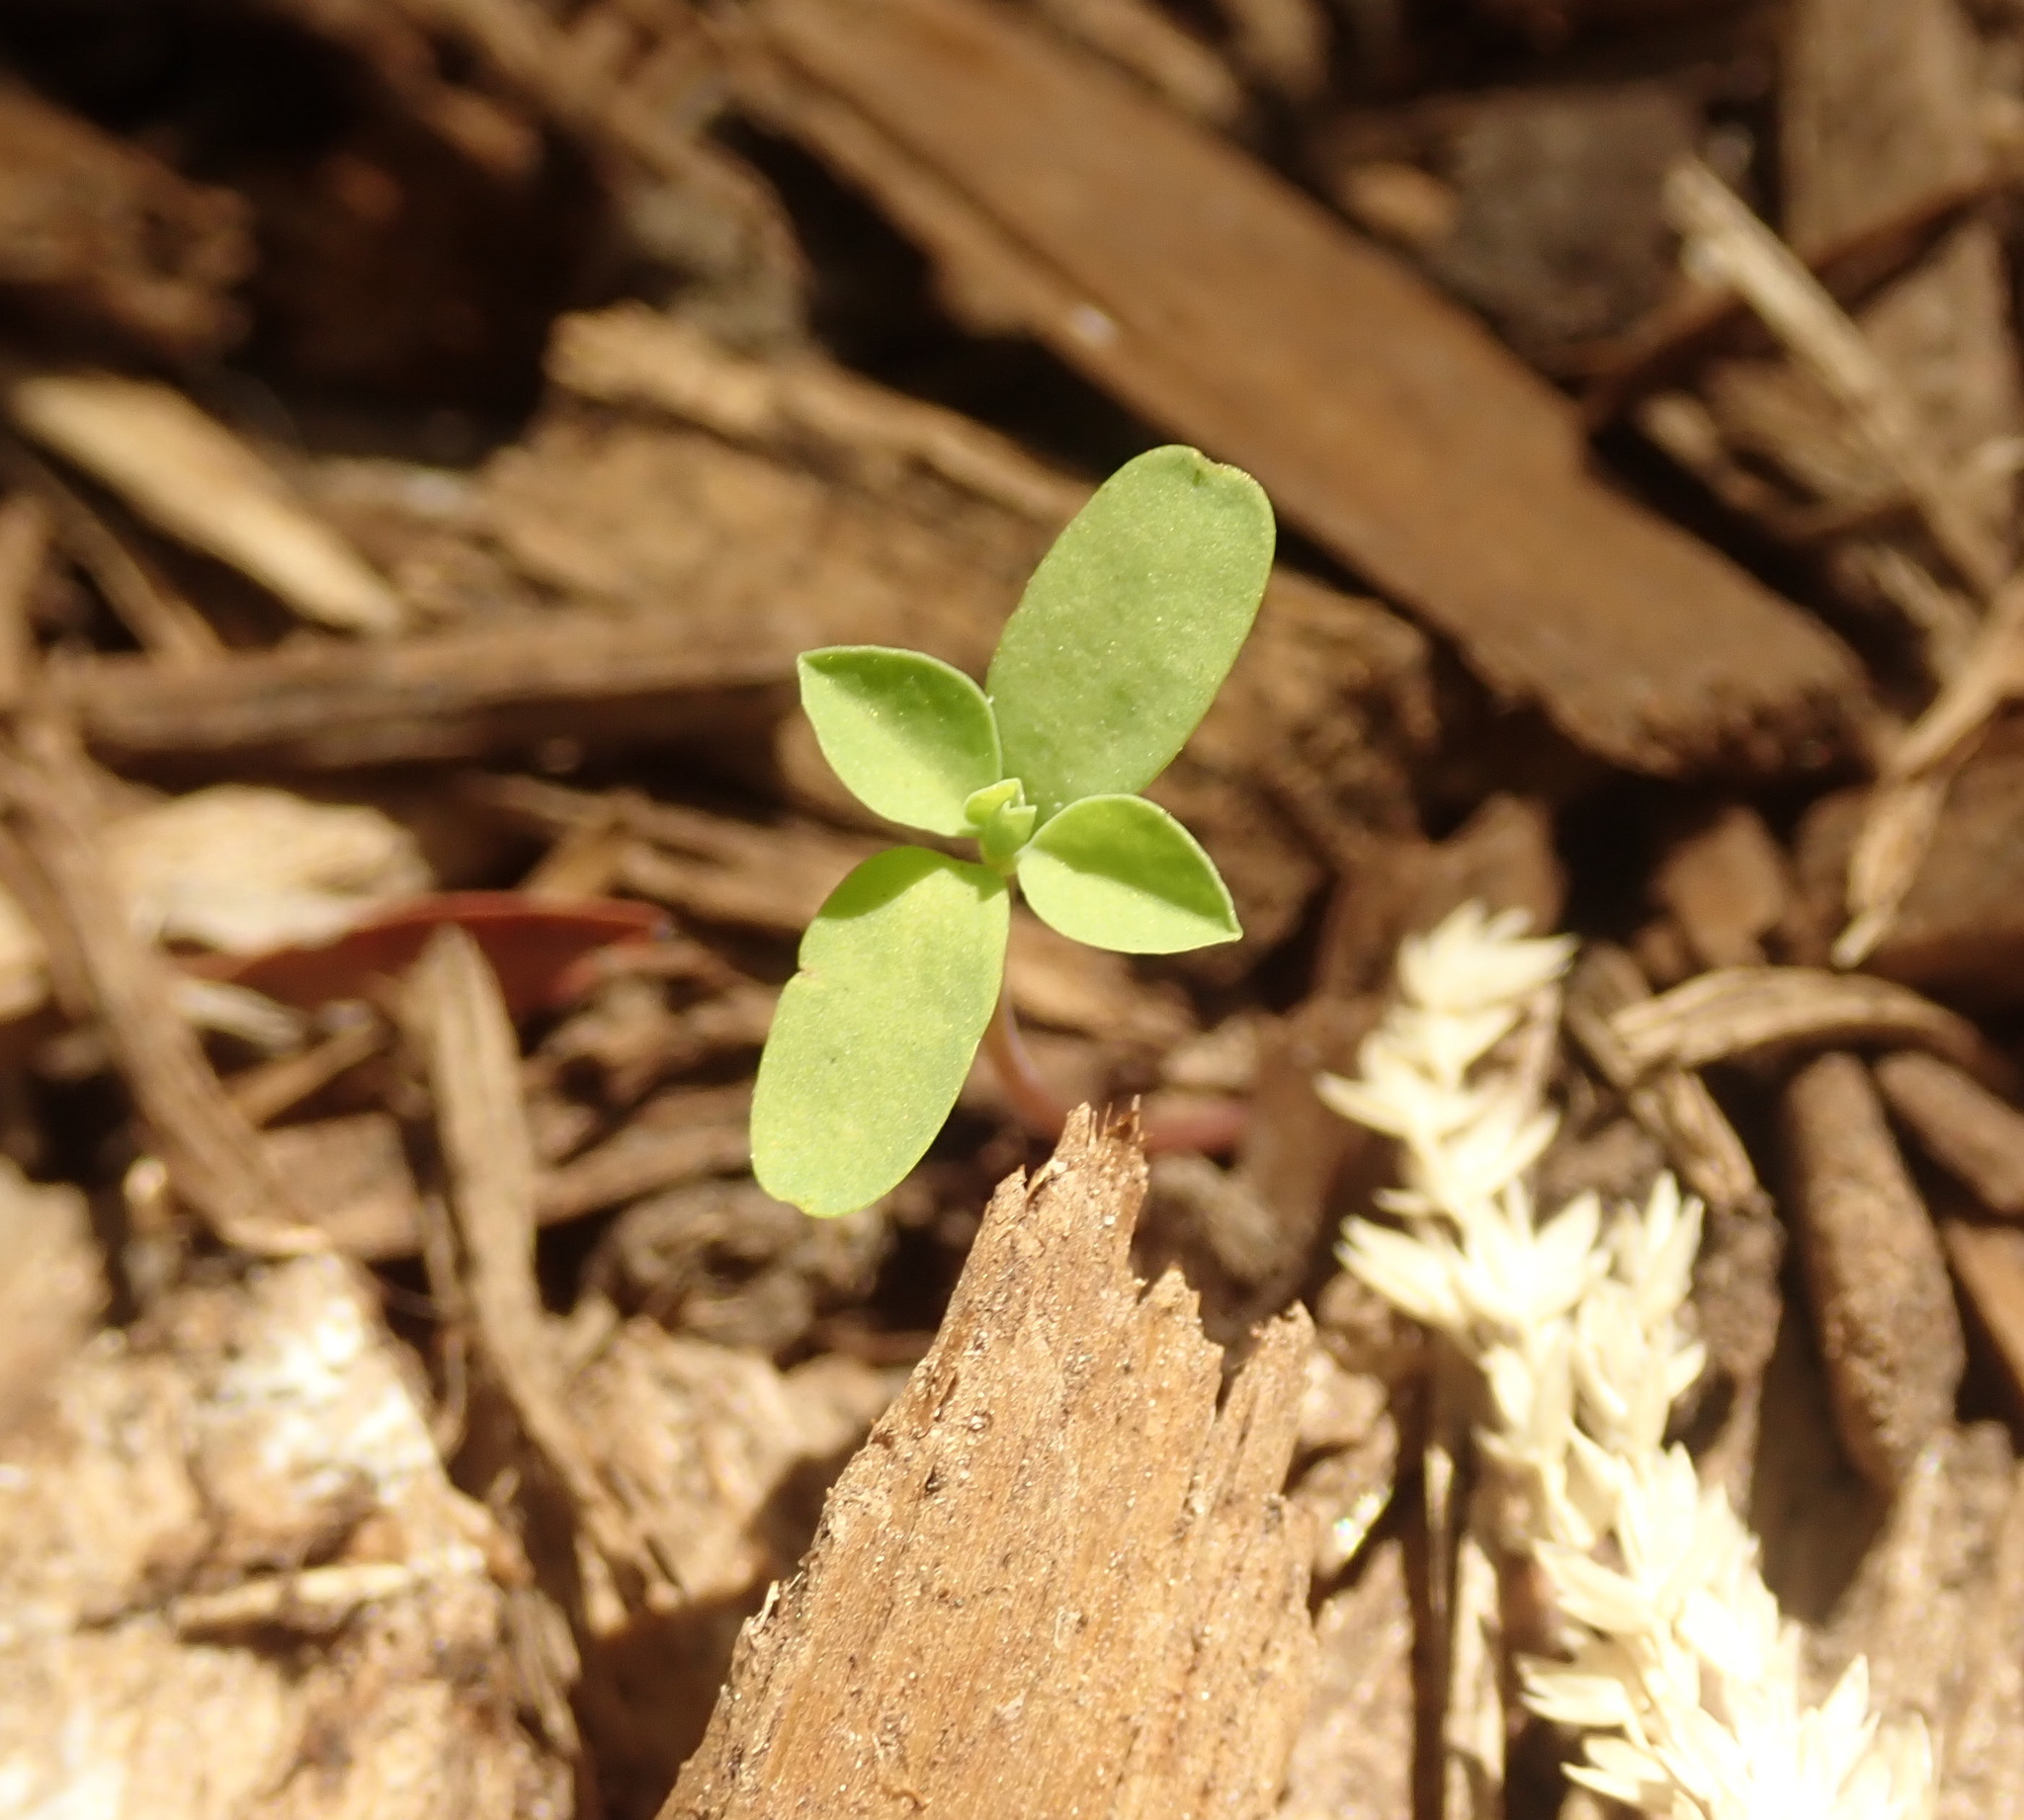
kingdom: Plantae
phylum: Tracheophyta
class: Magnoliopsida
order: Gentianales
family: Apocynaceae
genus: Araujia
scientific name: Araujia sericifera
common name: White bladderflower
